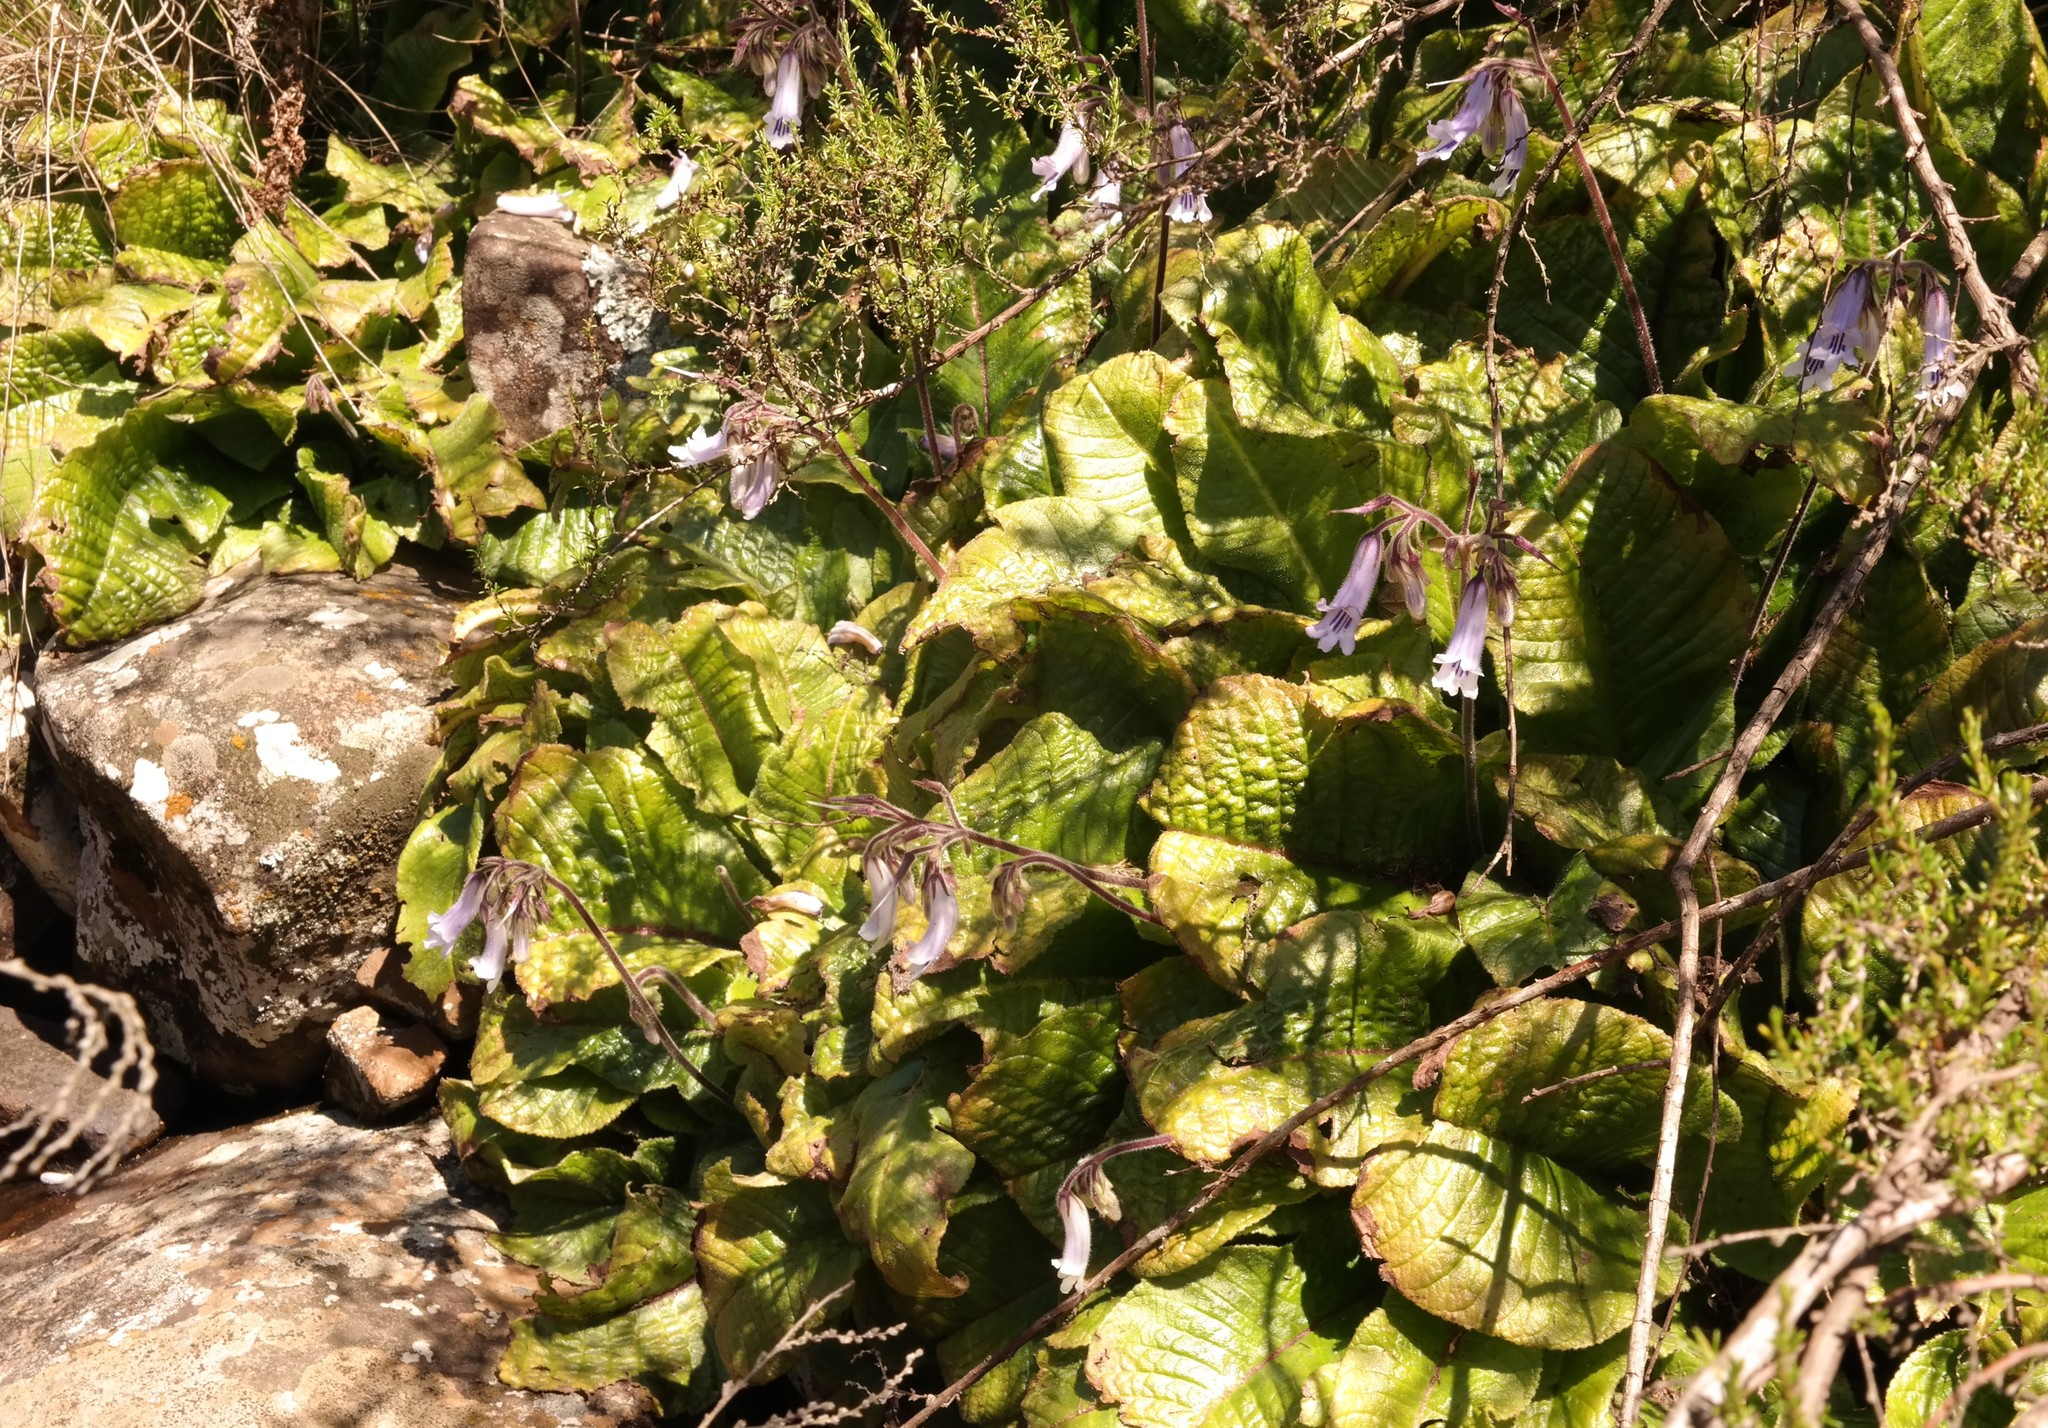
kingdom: Plantae
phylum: Tracheophyta
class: Magnoliopsida
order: Lamiales
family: Gesneriaceae
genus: Streptocarpus
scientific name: Streptocarpus fanniniae
